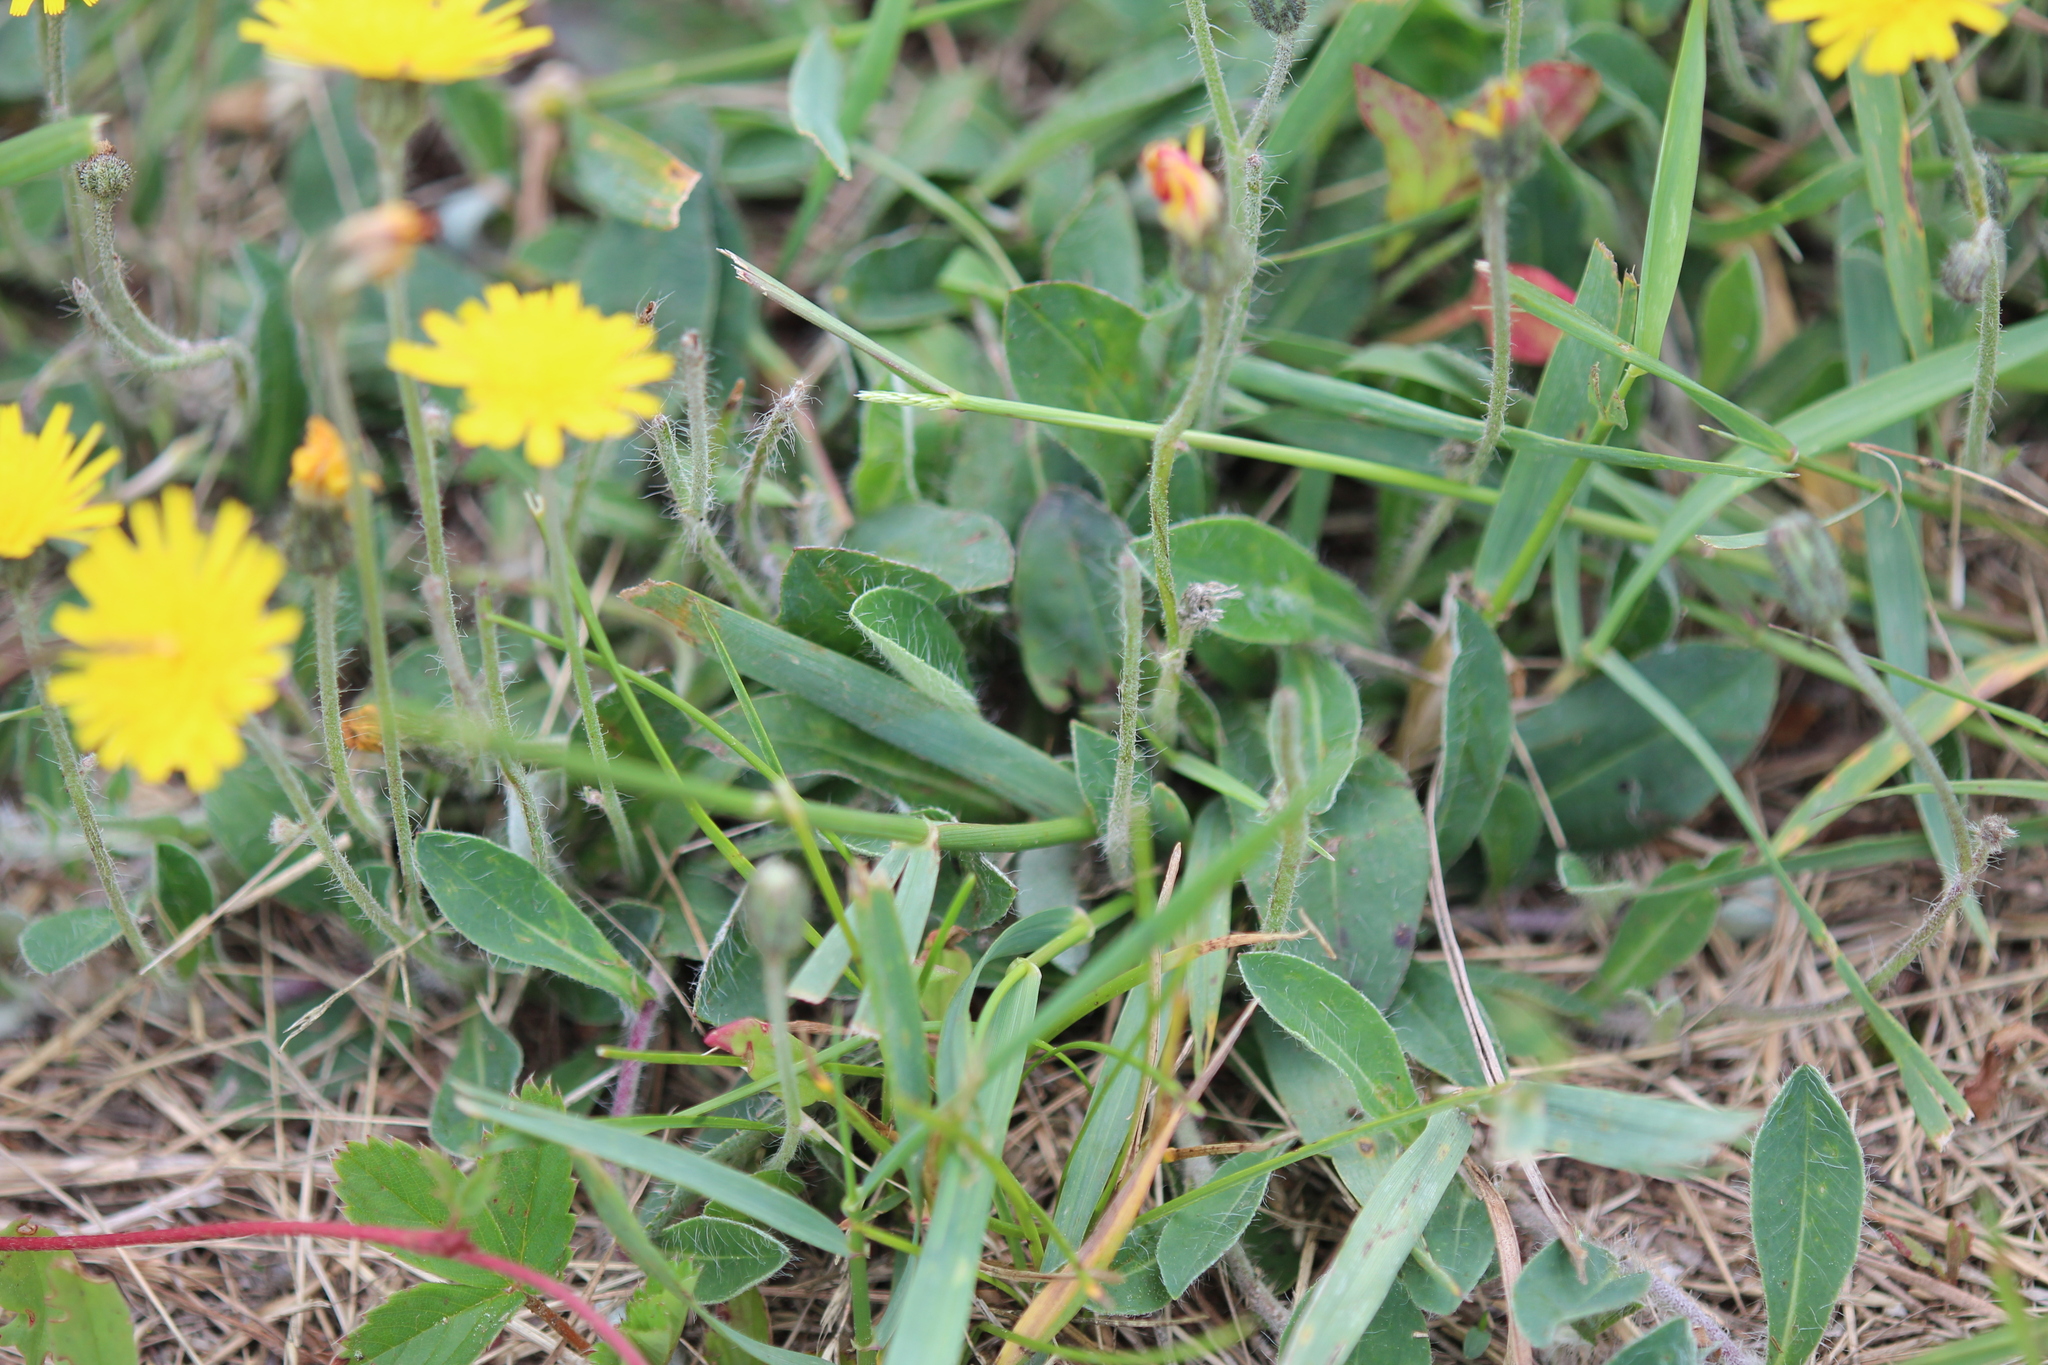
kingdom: Plantae
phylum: Tracheophyta
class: Magnoliopsida
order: Asterales
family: Asteraceae
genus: Pilosella
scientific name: Pilosella officinarum
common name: Mouse-ear hawkweed
